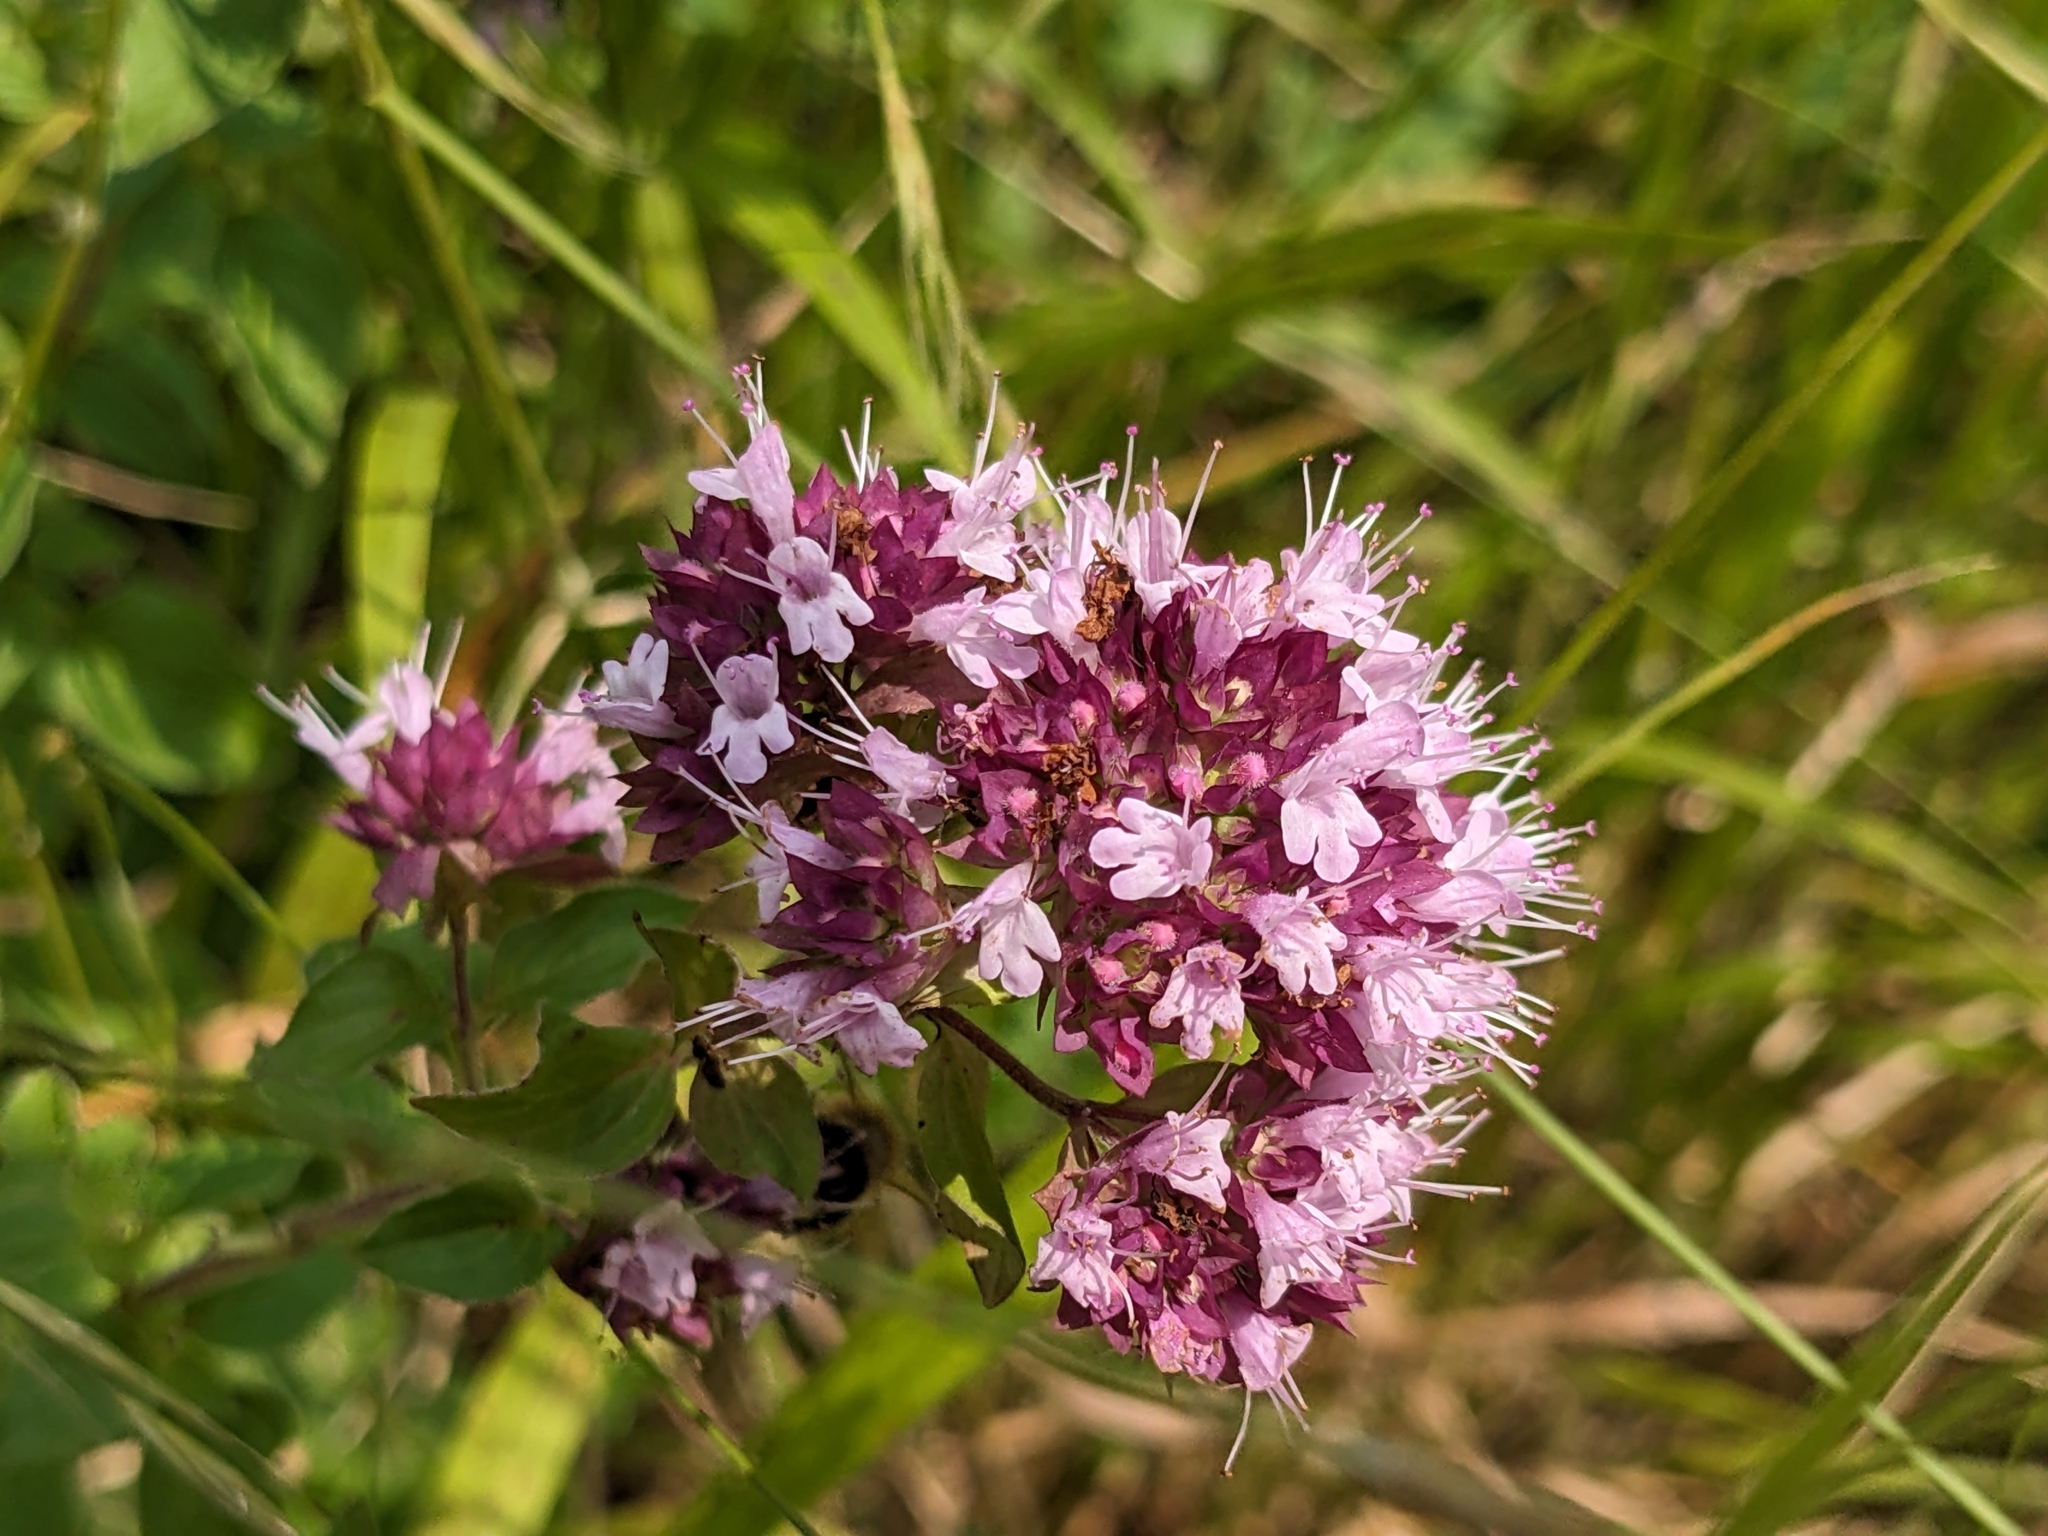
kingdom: Plantae
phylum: Tracheophyta
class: Magnoliopsida
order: Lamiales
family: Lamiaceae
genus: Origanum
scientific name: Origanum vulgare
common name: Wild marjoram
